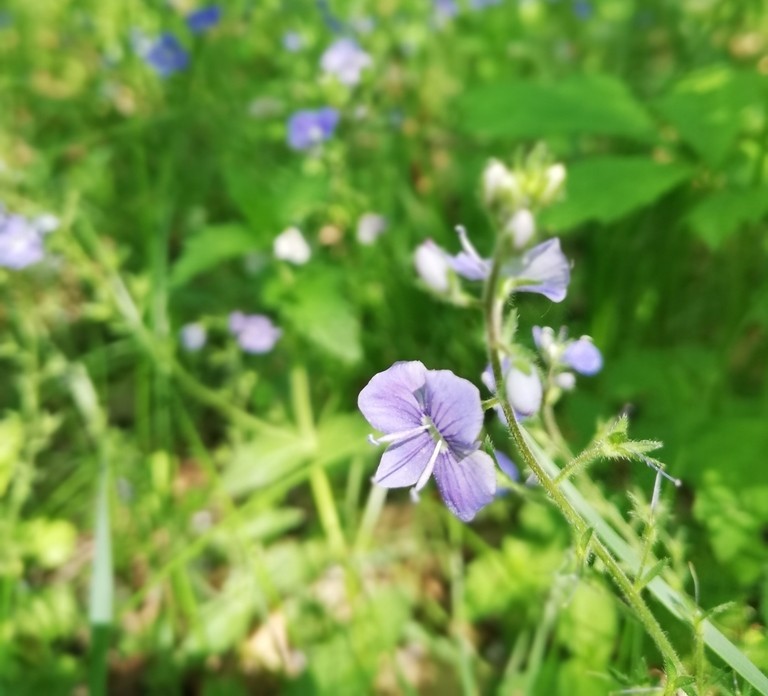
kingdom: Plantae
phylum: Tracheophyta
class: Magnoliopsida
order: Lamiales
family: Plantaginaceae
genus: Veronica
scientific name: Veronica chamaedrys
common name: Germander speedwell
